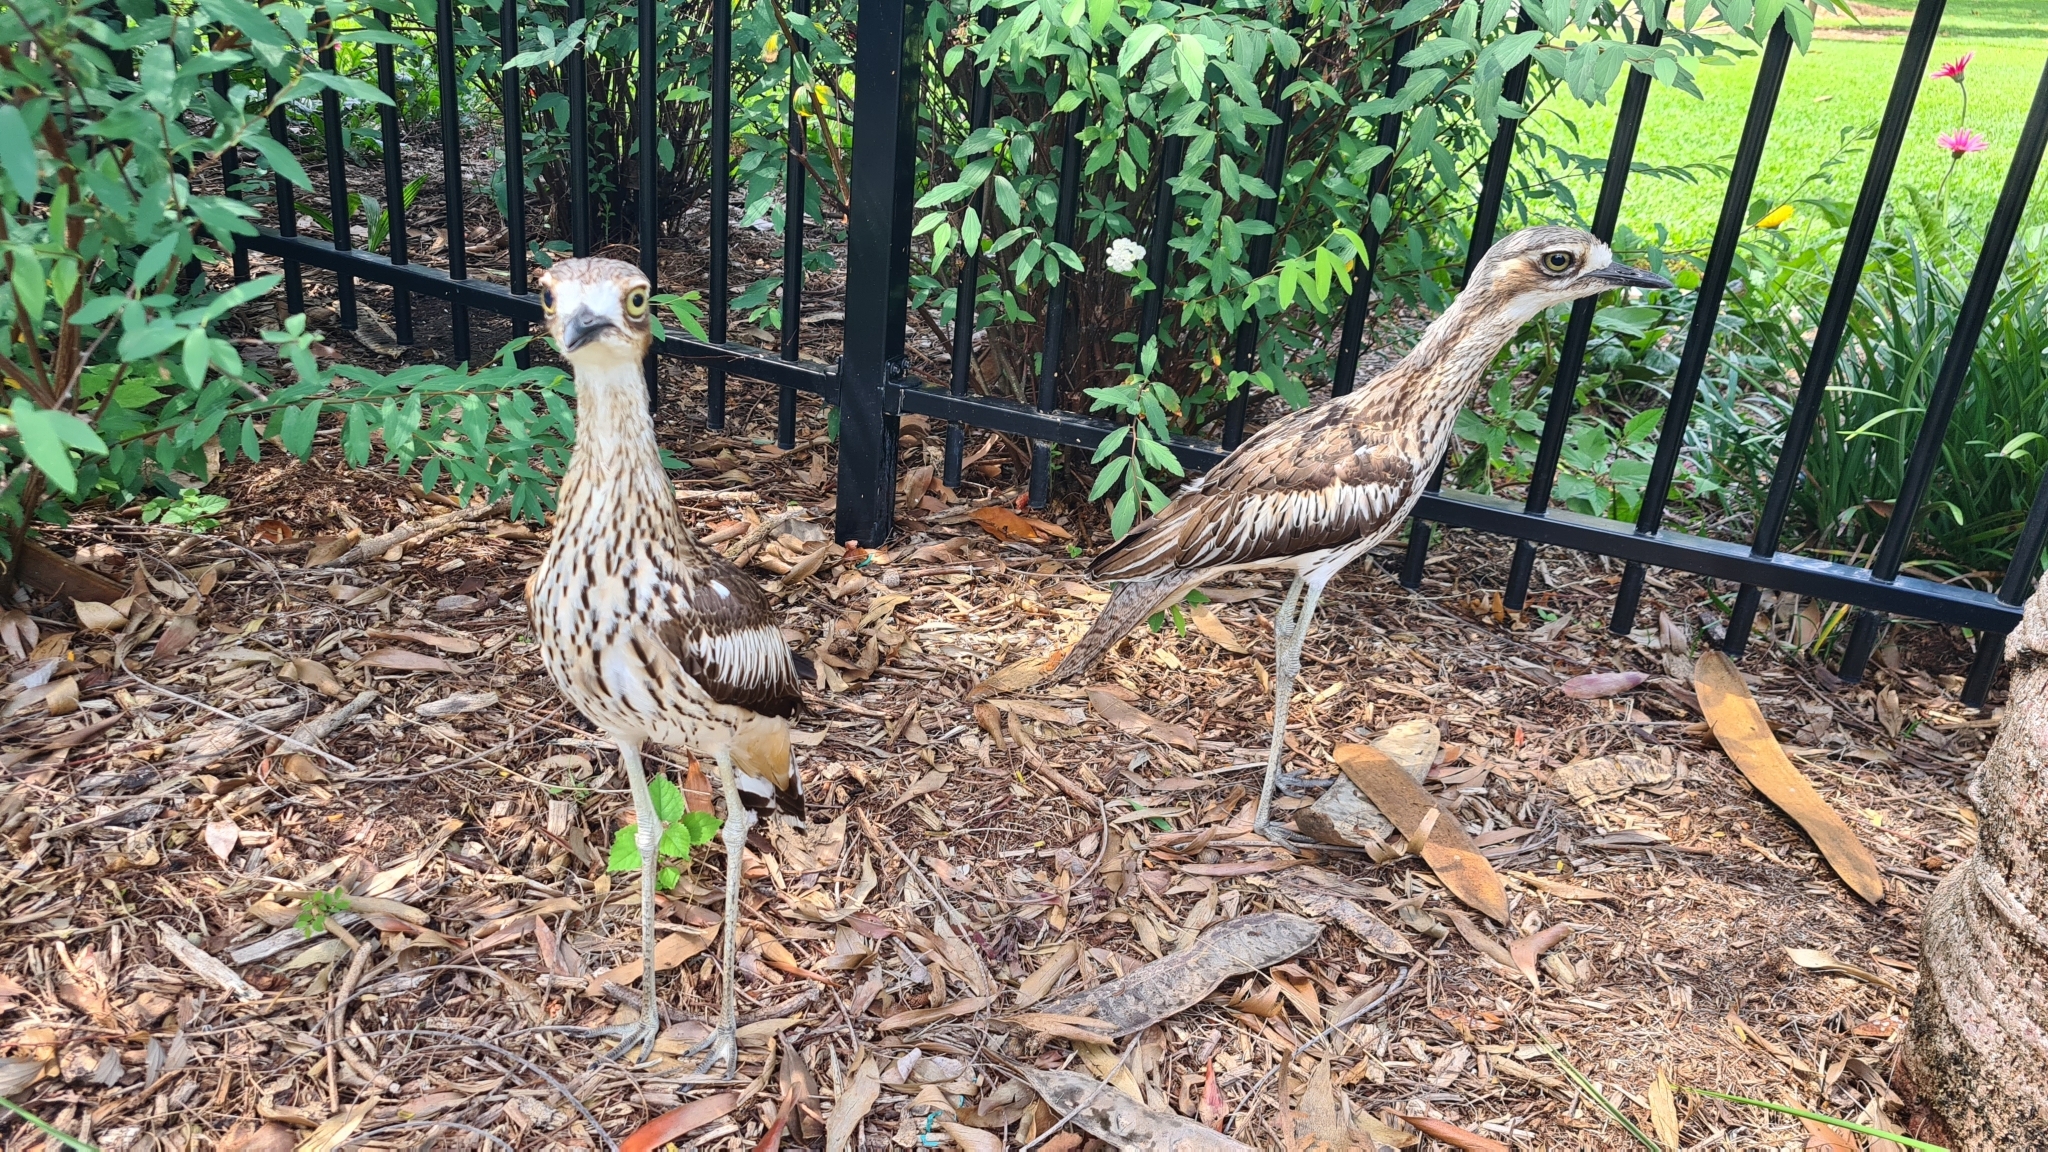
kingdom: Animalia
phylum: Chordata
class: Aves
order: Charadriiformes
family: Burhinidae
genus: Burhinus
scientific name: Burhinus grallarius
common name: Bush stone-curlew
